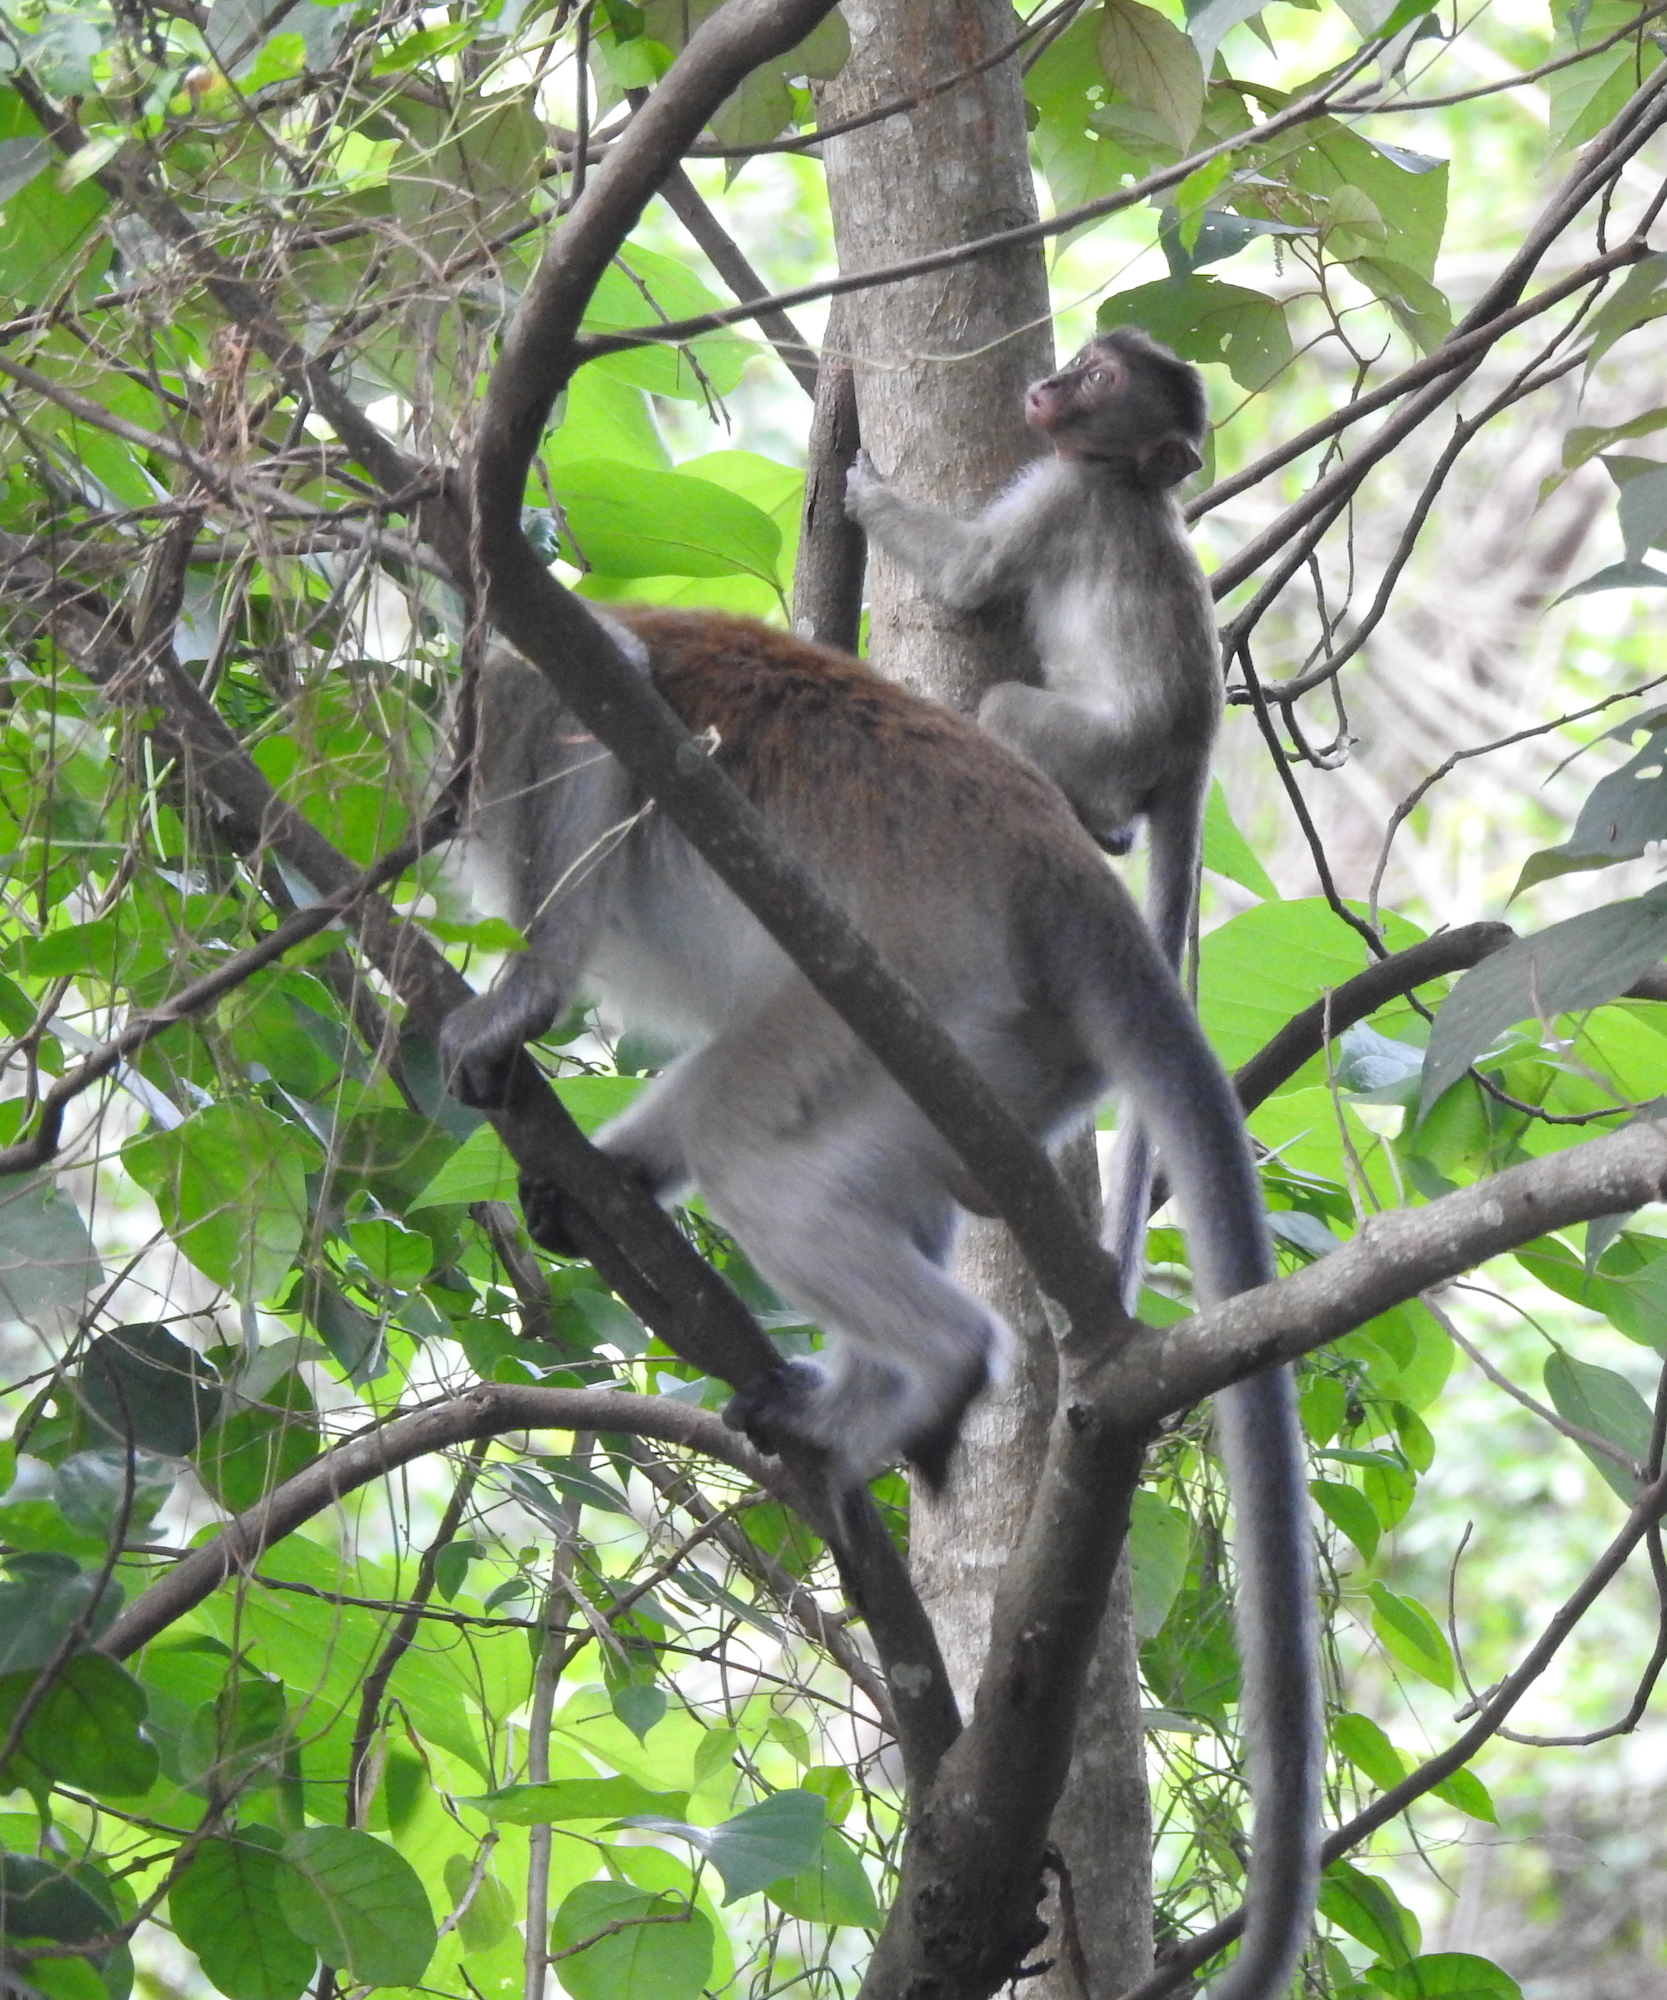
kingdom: Animalia
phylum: Chordata
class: Mammalia
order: Primates
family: Cercopithecidae
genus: Macaca
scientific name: Macaca fascicularis
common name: Crab-eating macaque
